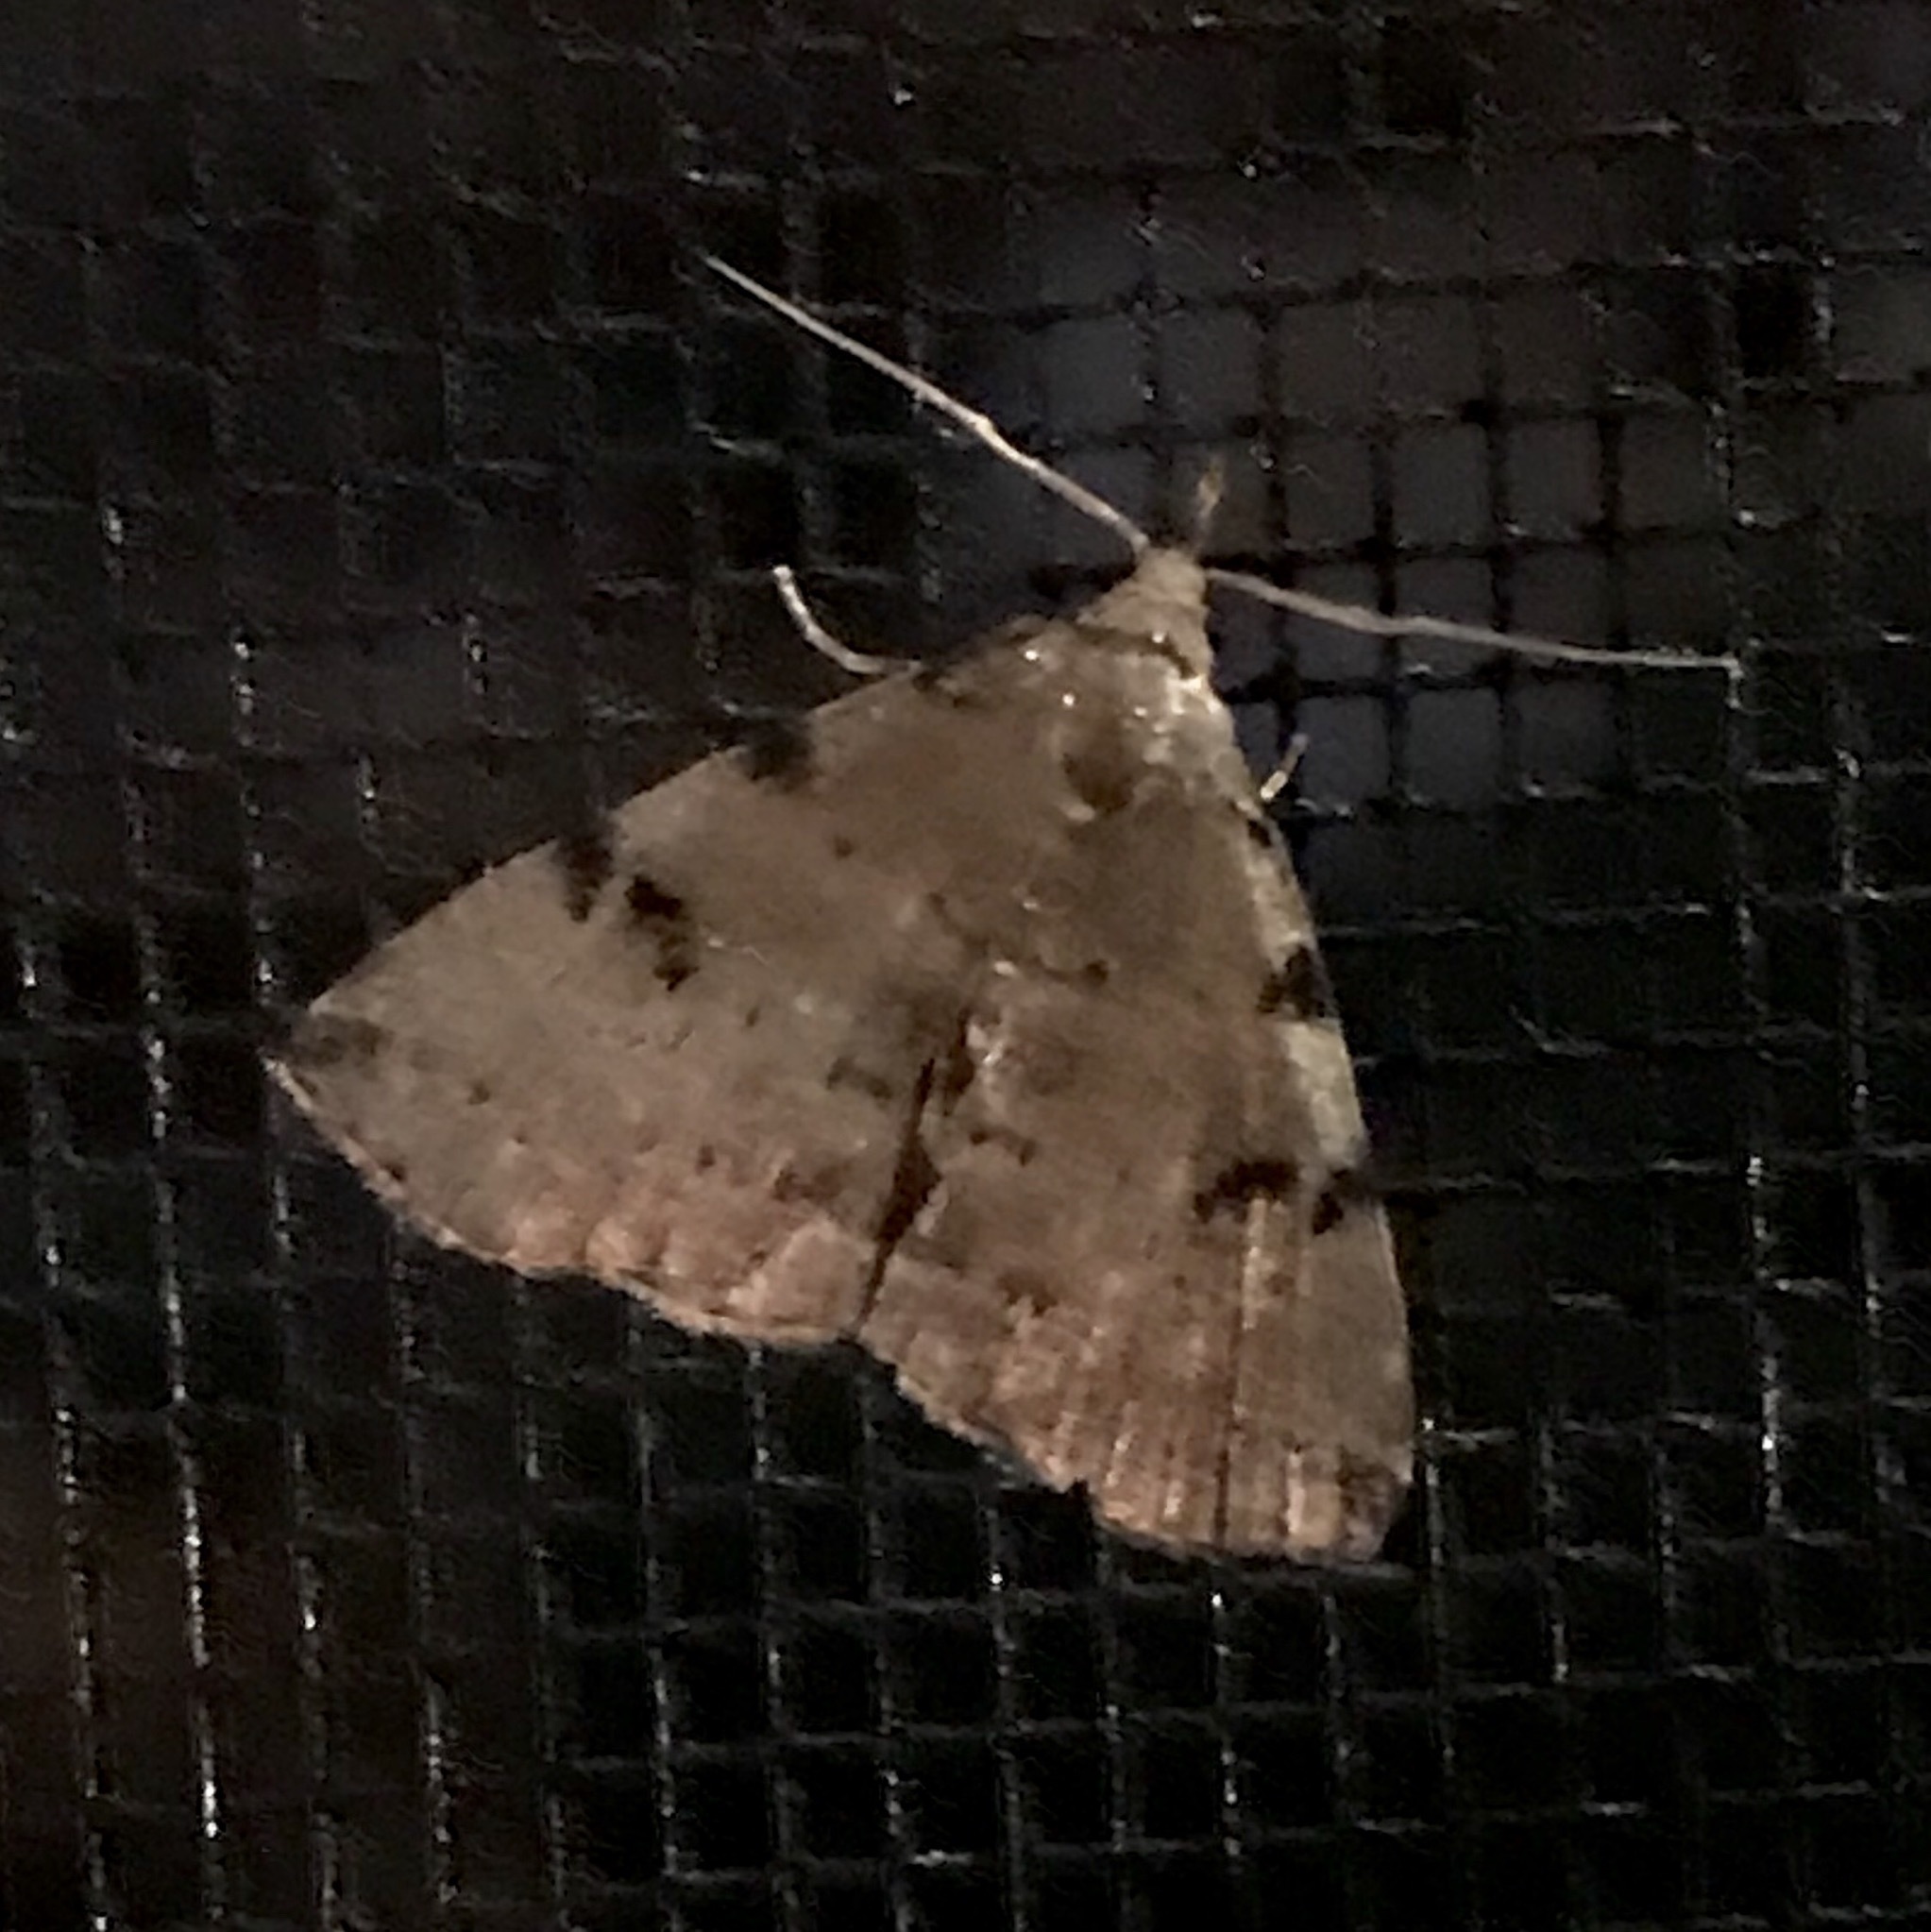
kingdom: Animalia
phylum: Arthropoda
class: Insecta
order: Lepidoptera
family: Erebidae
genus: Zanclognatha
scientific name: Zanclognatha lituralis
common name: Lettered fan-foot
